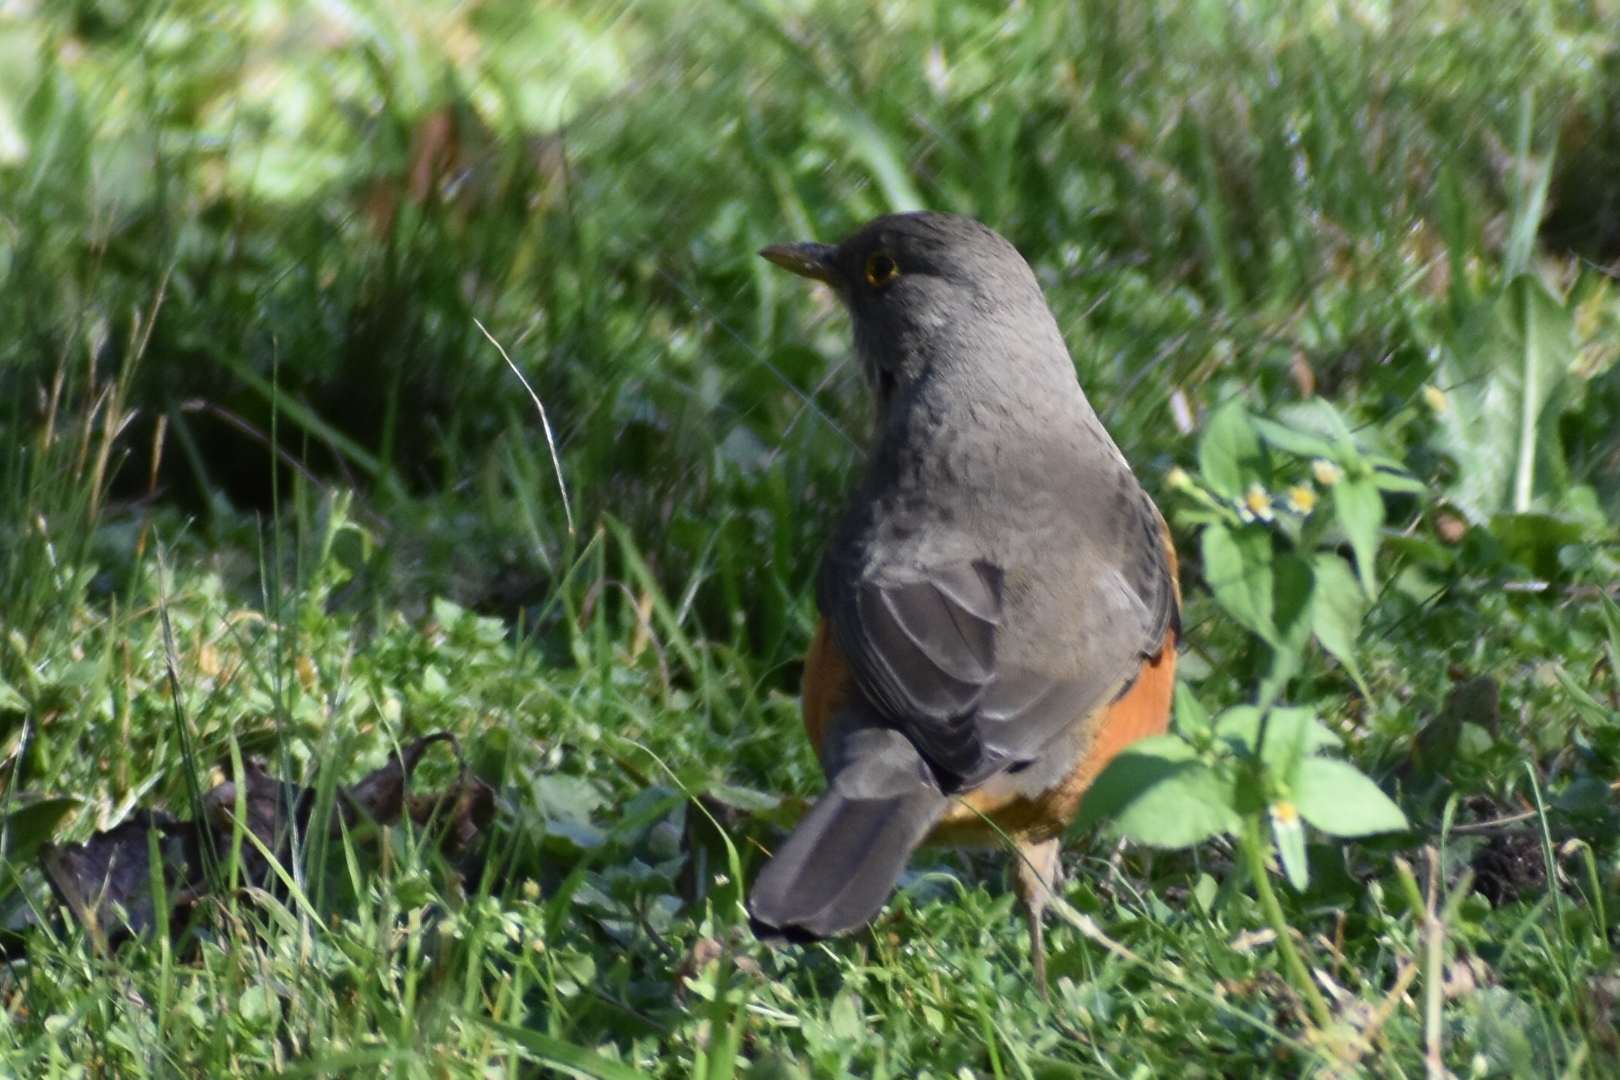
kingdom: Animalia
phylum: Chordata
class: Aves
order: Passeriformes
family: Turdidae
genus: Turdus
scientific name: Turdus rufiventris
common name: Rufous-bellied thrush
